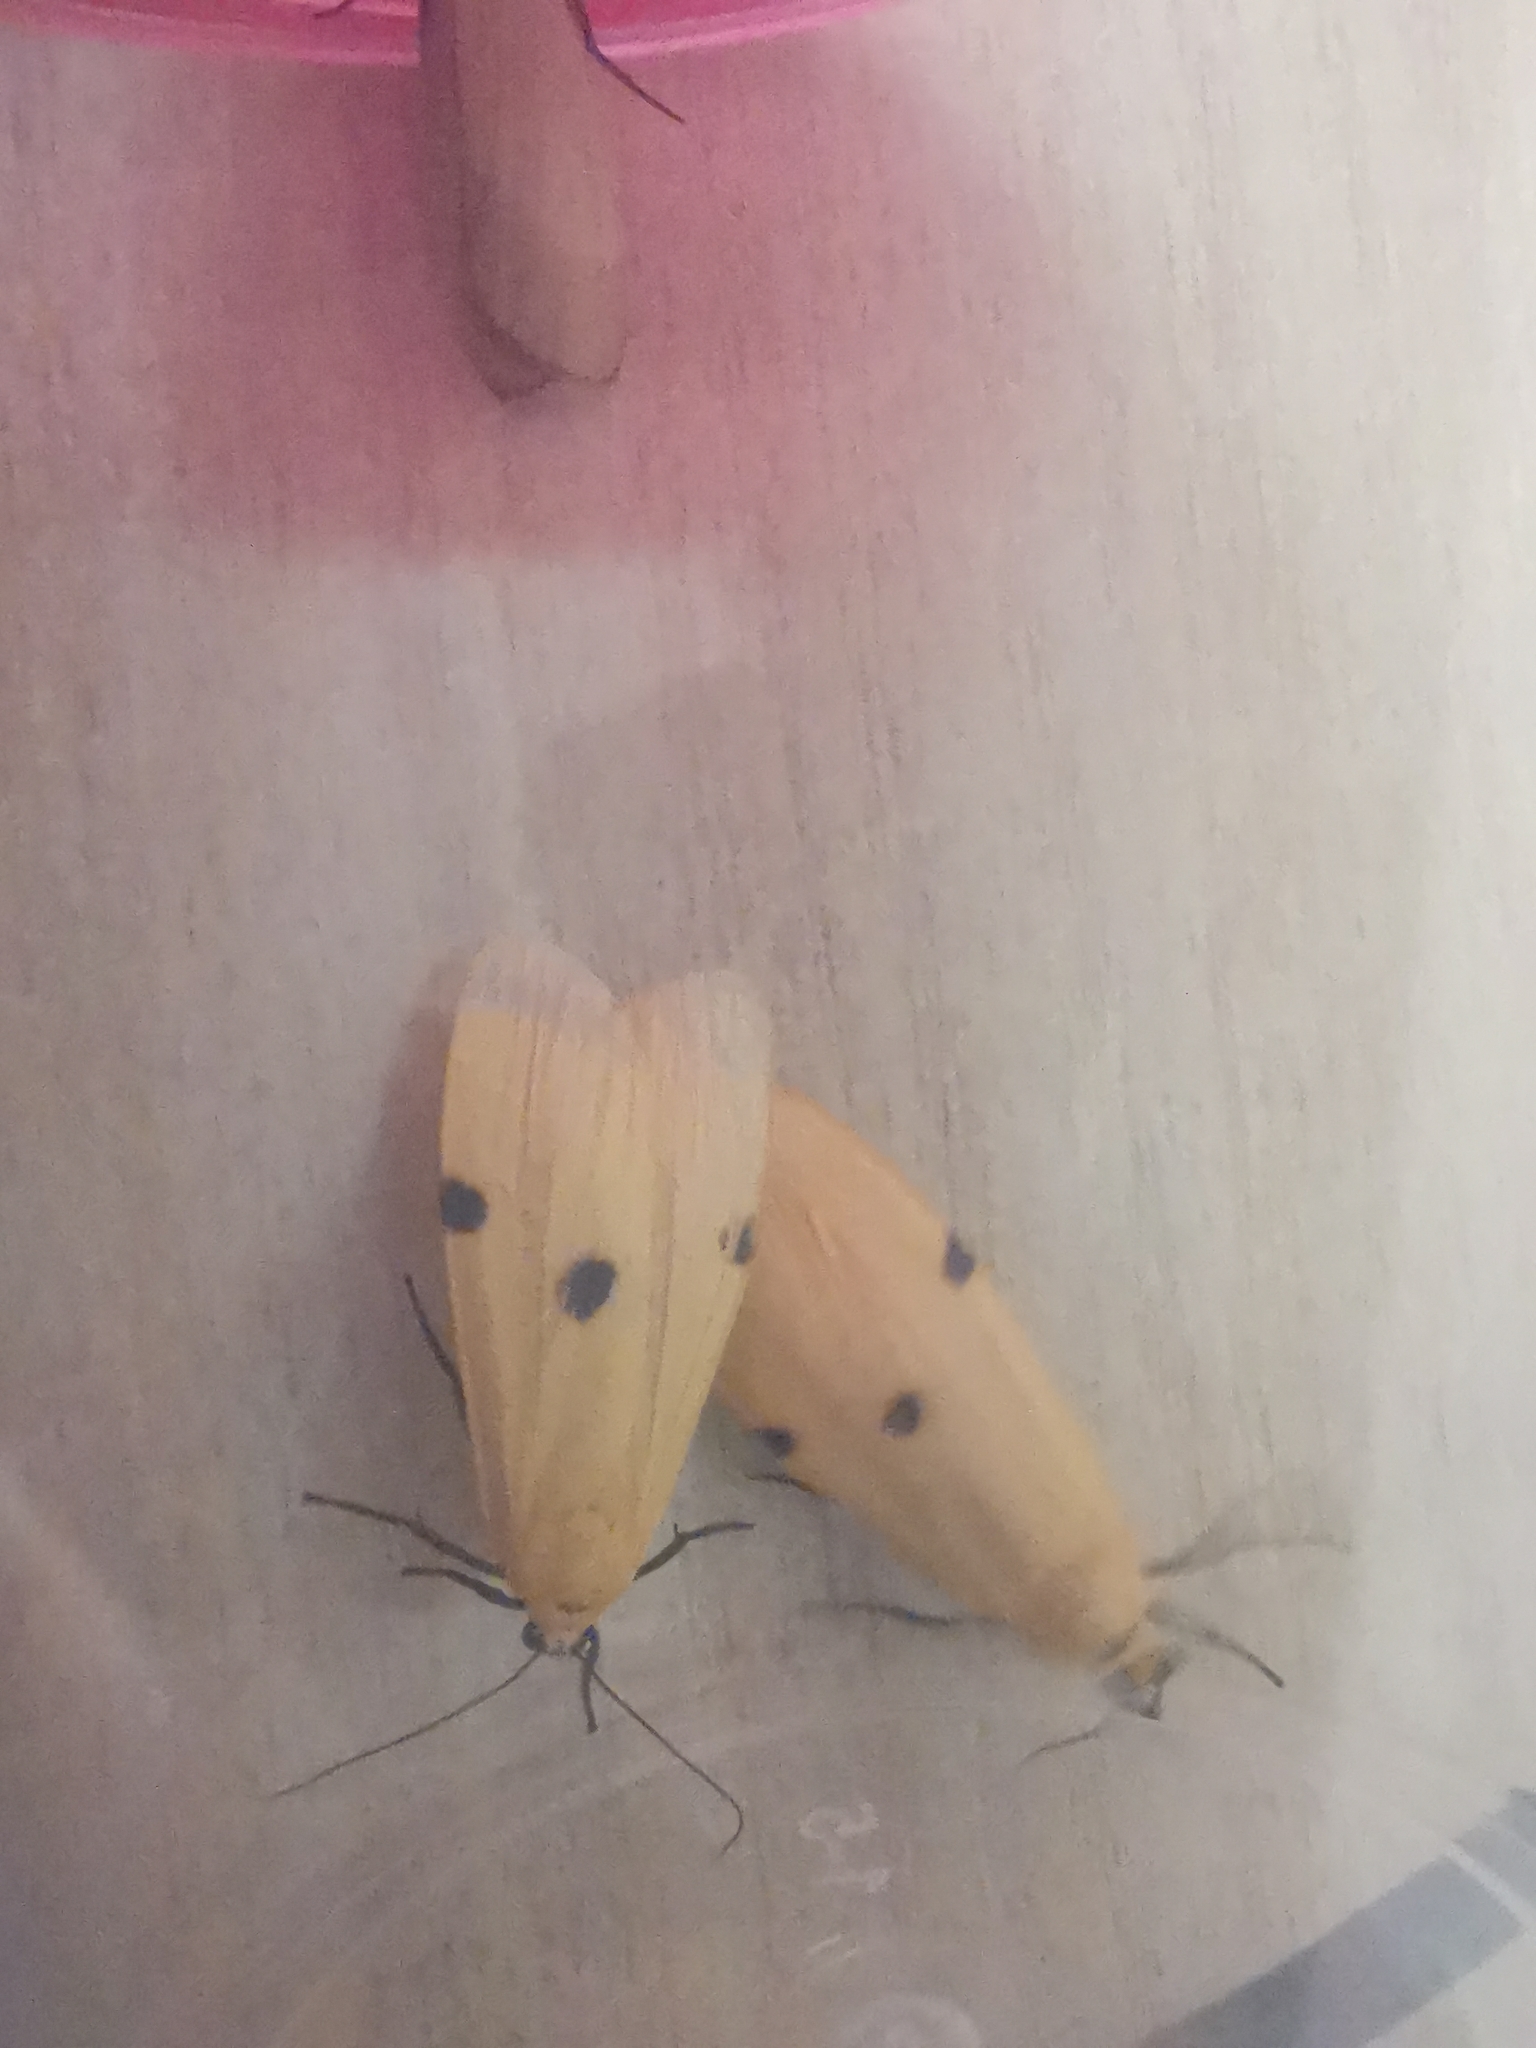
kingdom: Animalia
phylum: Arthropoda
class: Insecta
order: Lepidoptera
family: Erebidae
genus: Lithosia
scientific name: Lithosia quadra
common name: Four-spotted footman
